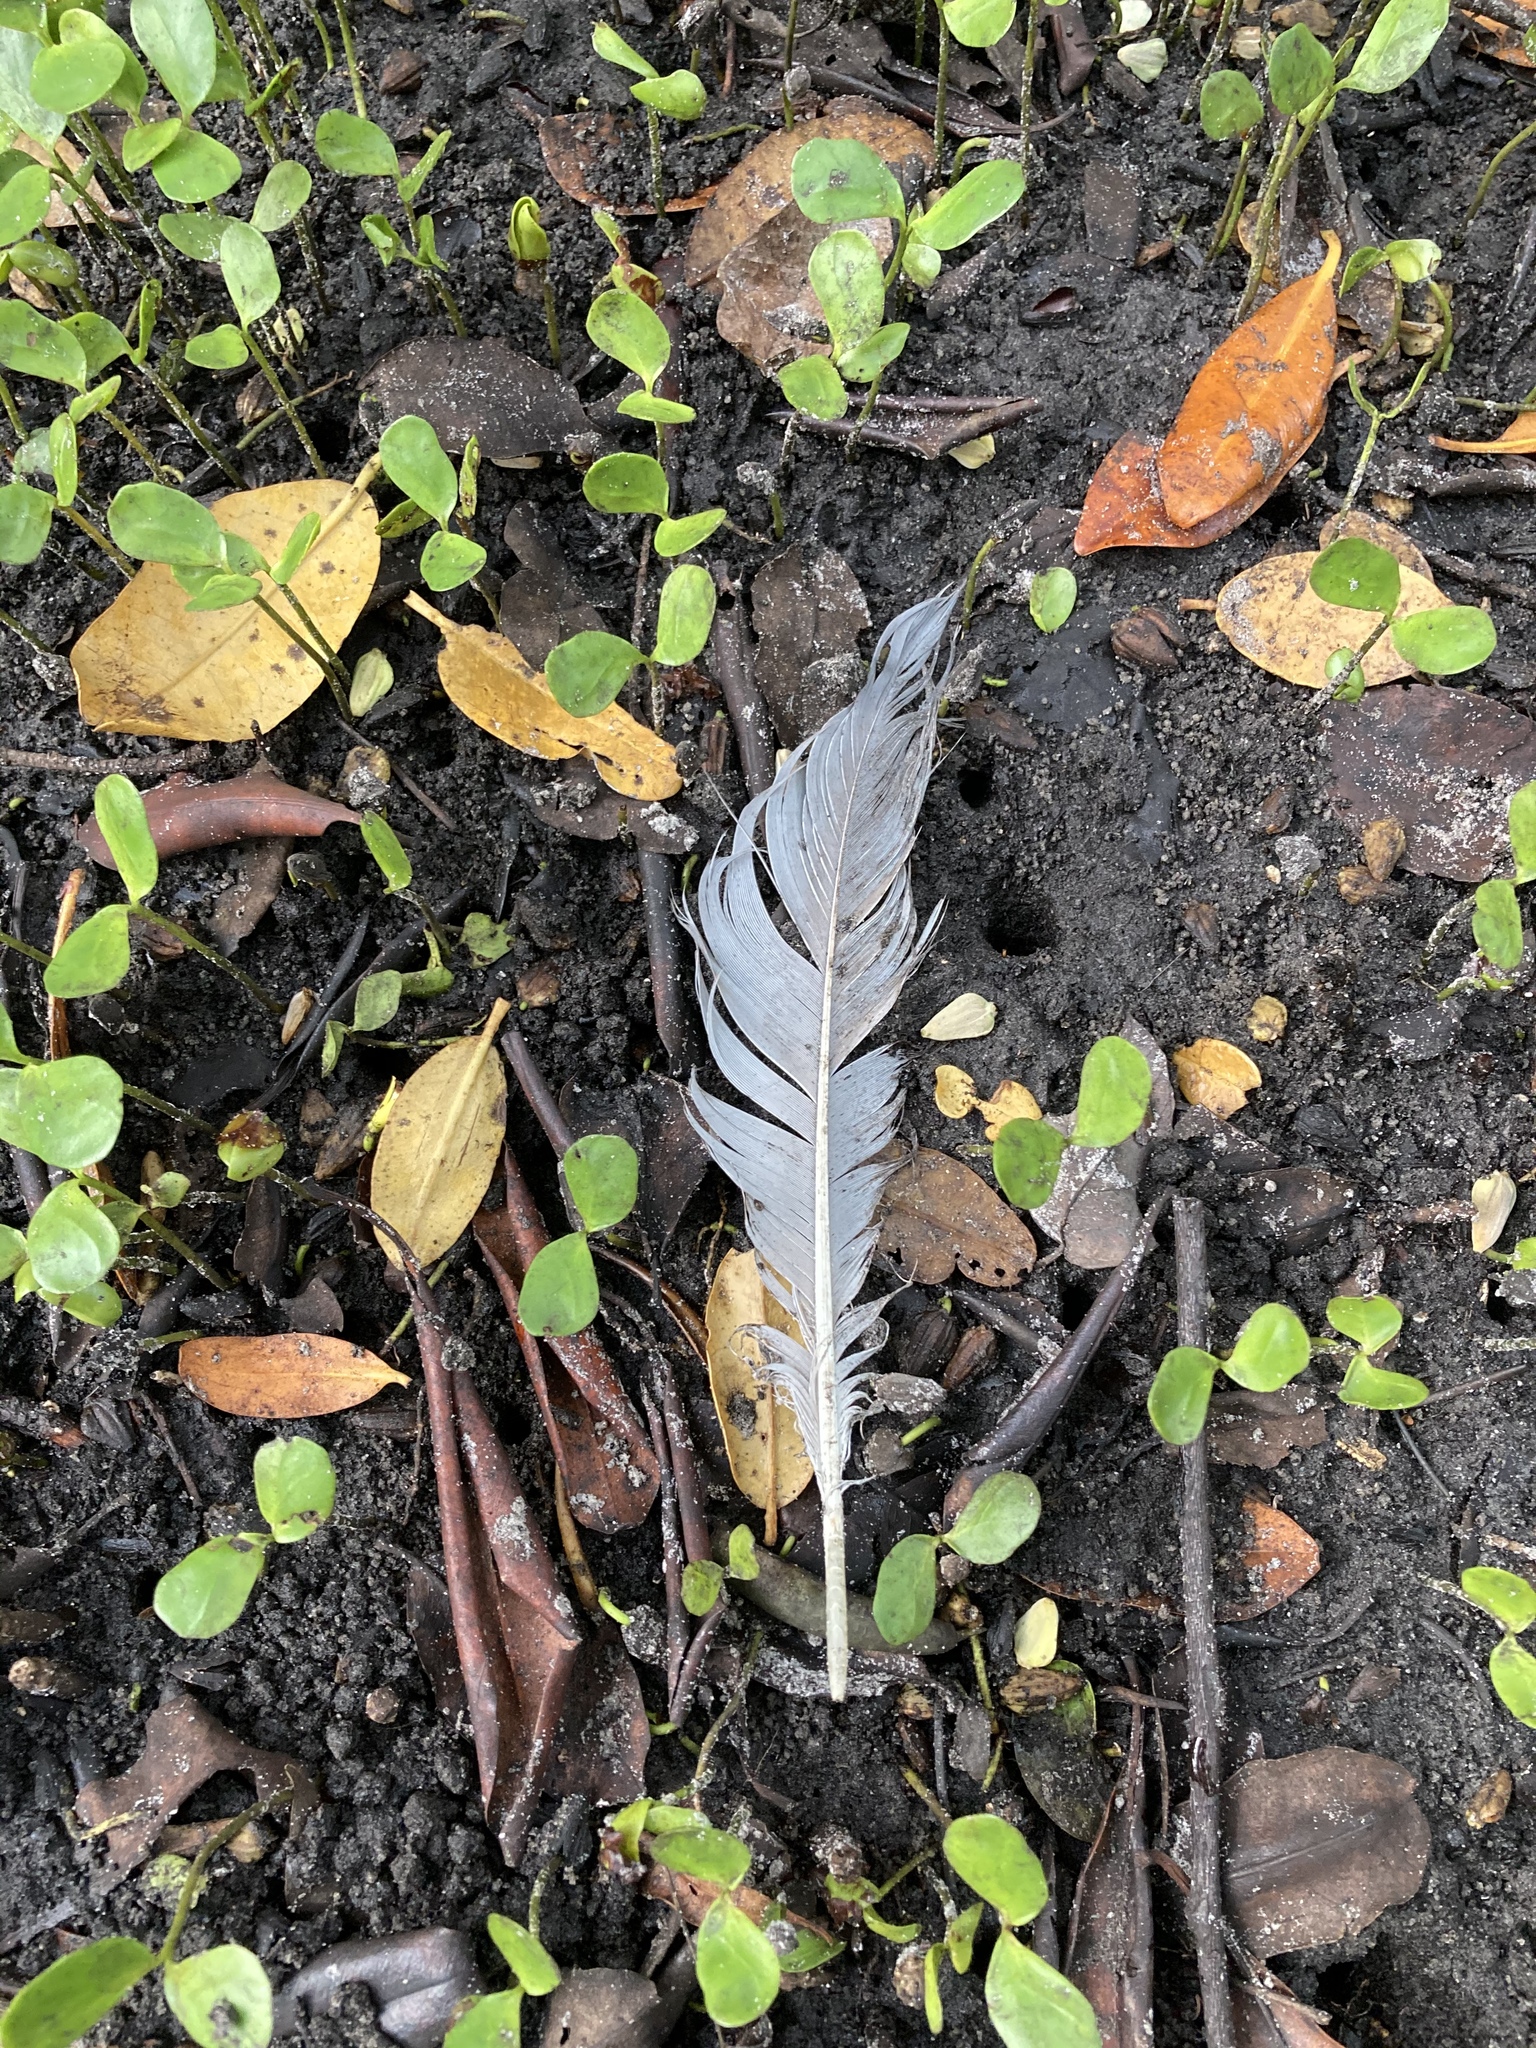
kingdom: Animalia
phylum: Chordata
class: Aves
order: Pelecaniformes
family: Ardeidae
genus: Ardea
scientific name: Ardea herodias
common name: Great blue heron
